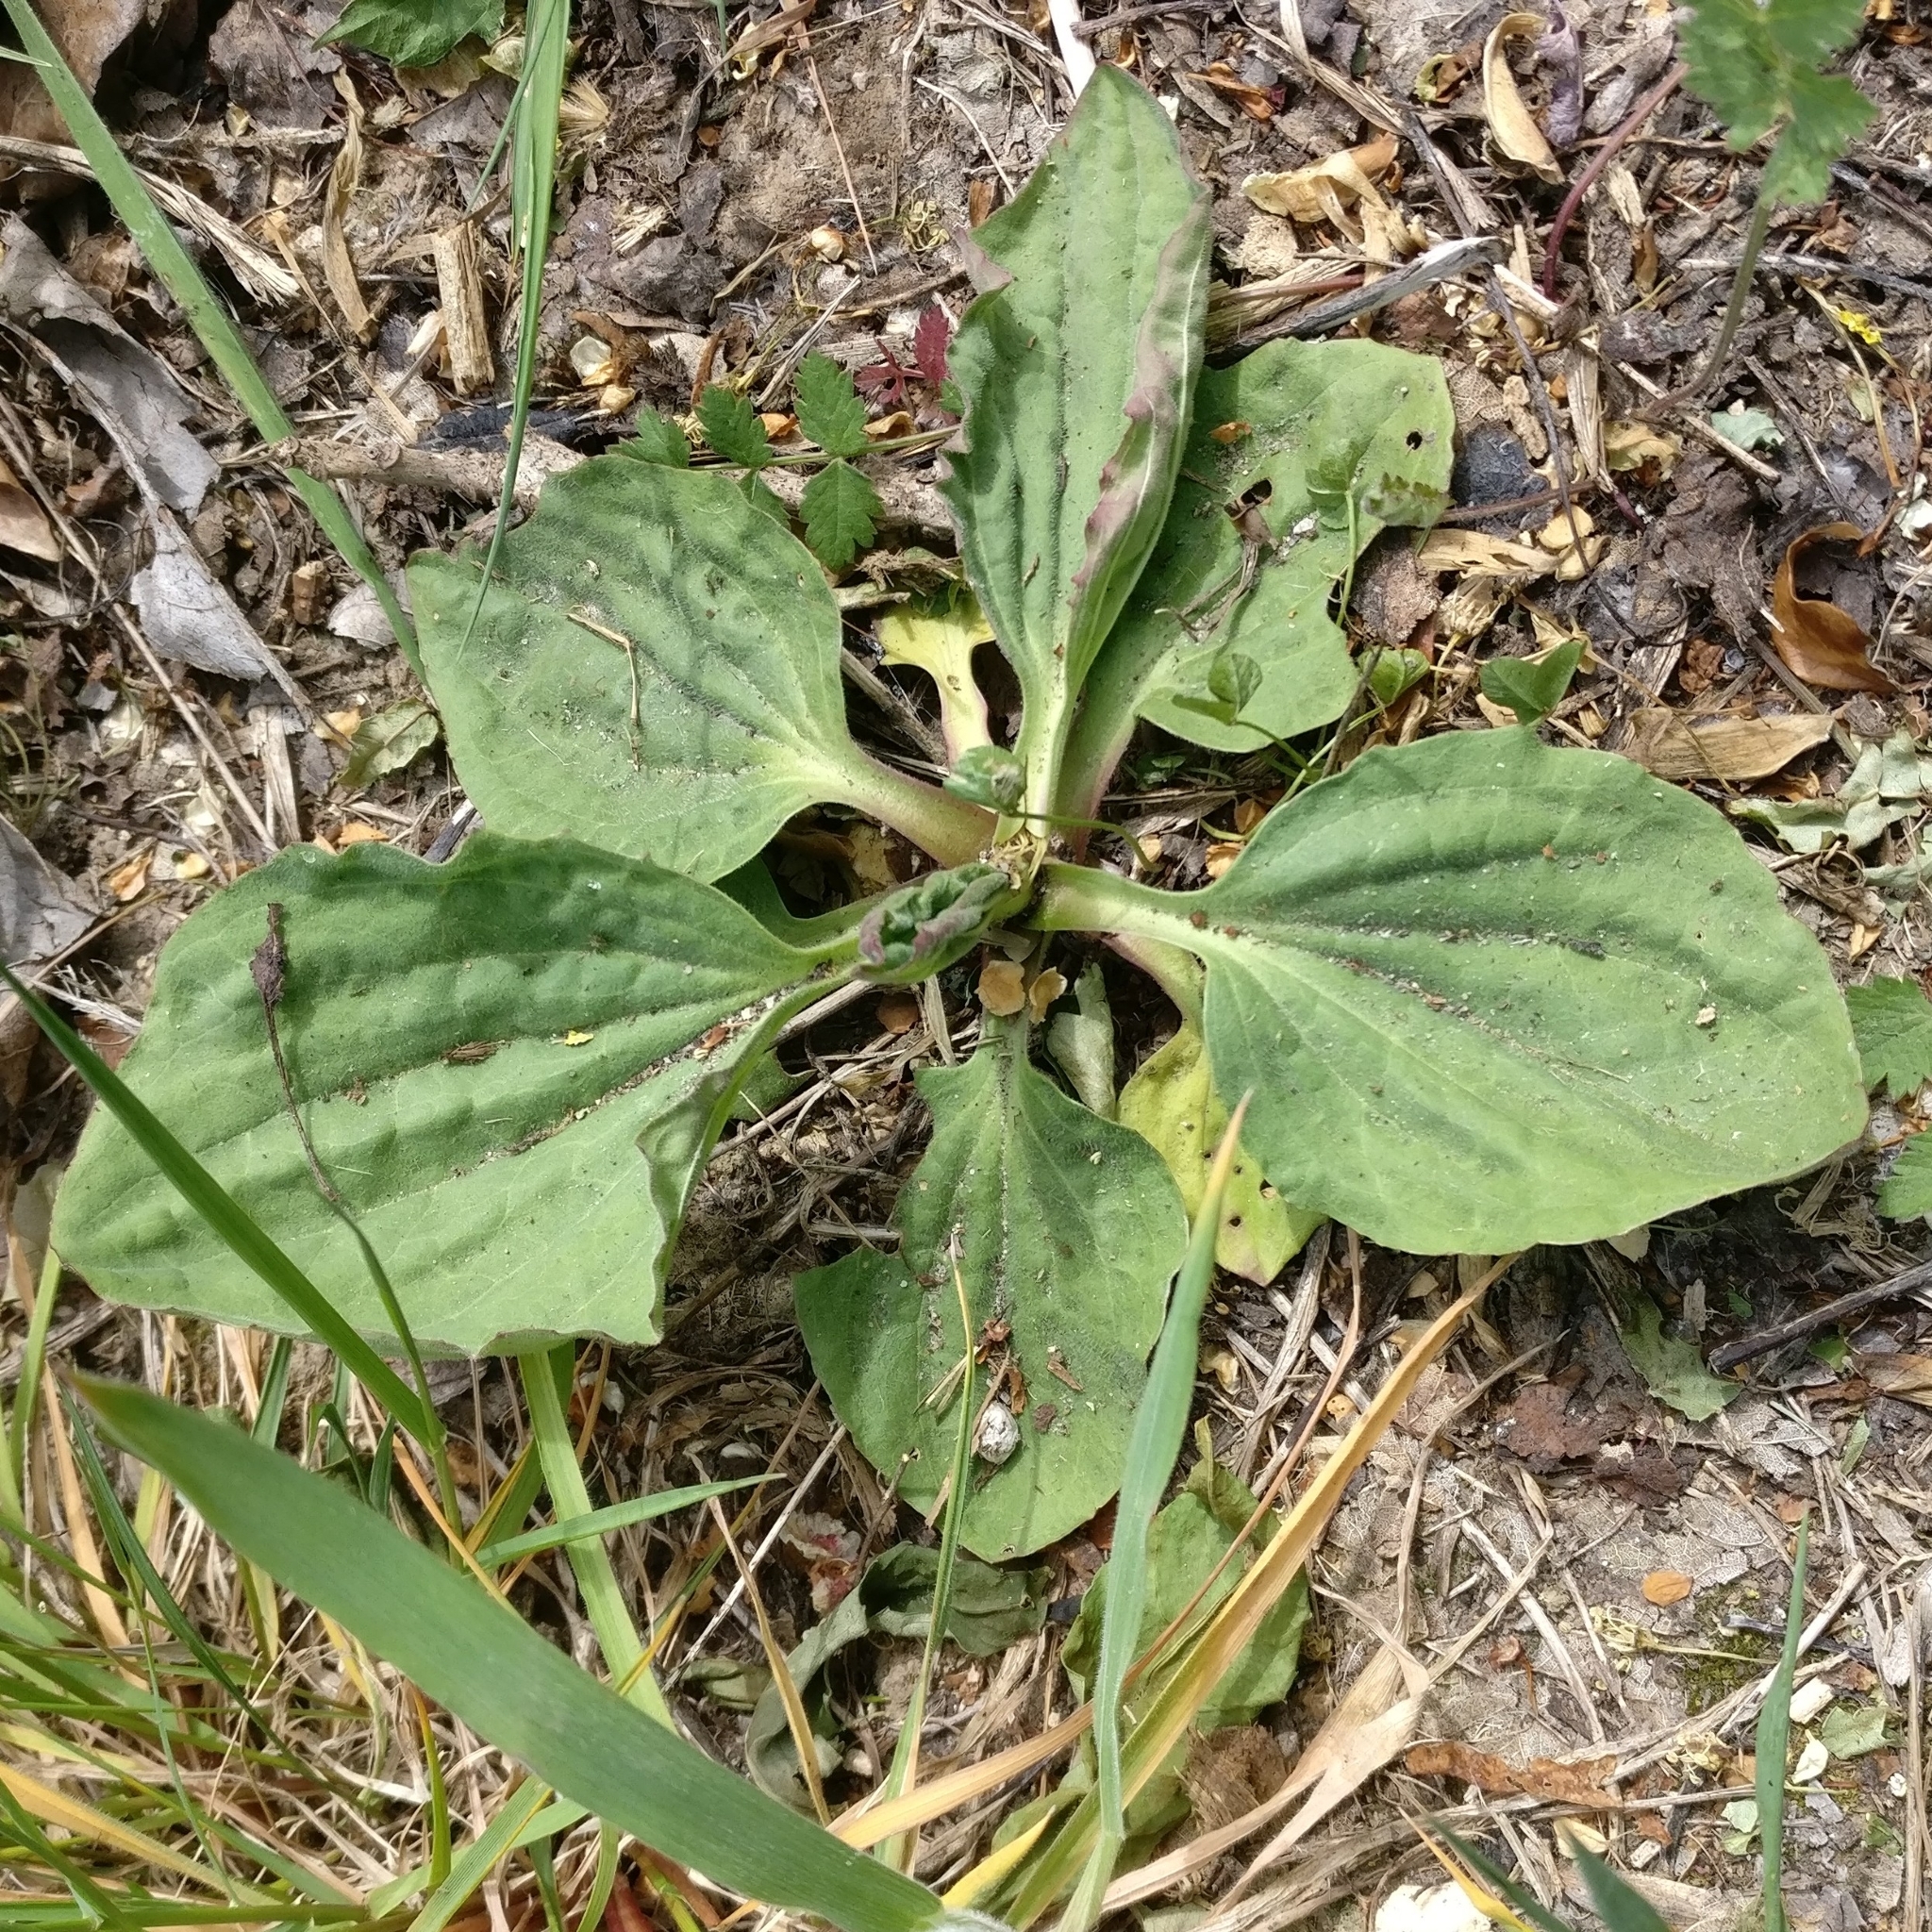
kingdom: Plantae
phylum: Tracheophyta
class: Magnoliopsida
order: Lamiales
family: Plantaginaceae
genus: Plantago
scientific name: Plantago major
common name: Common plantain
